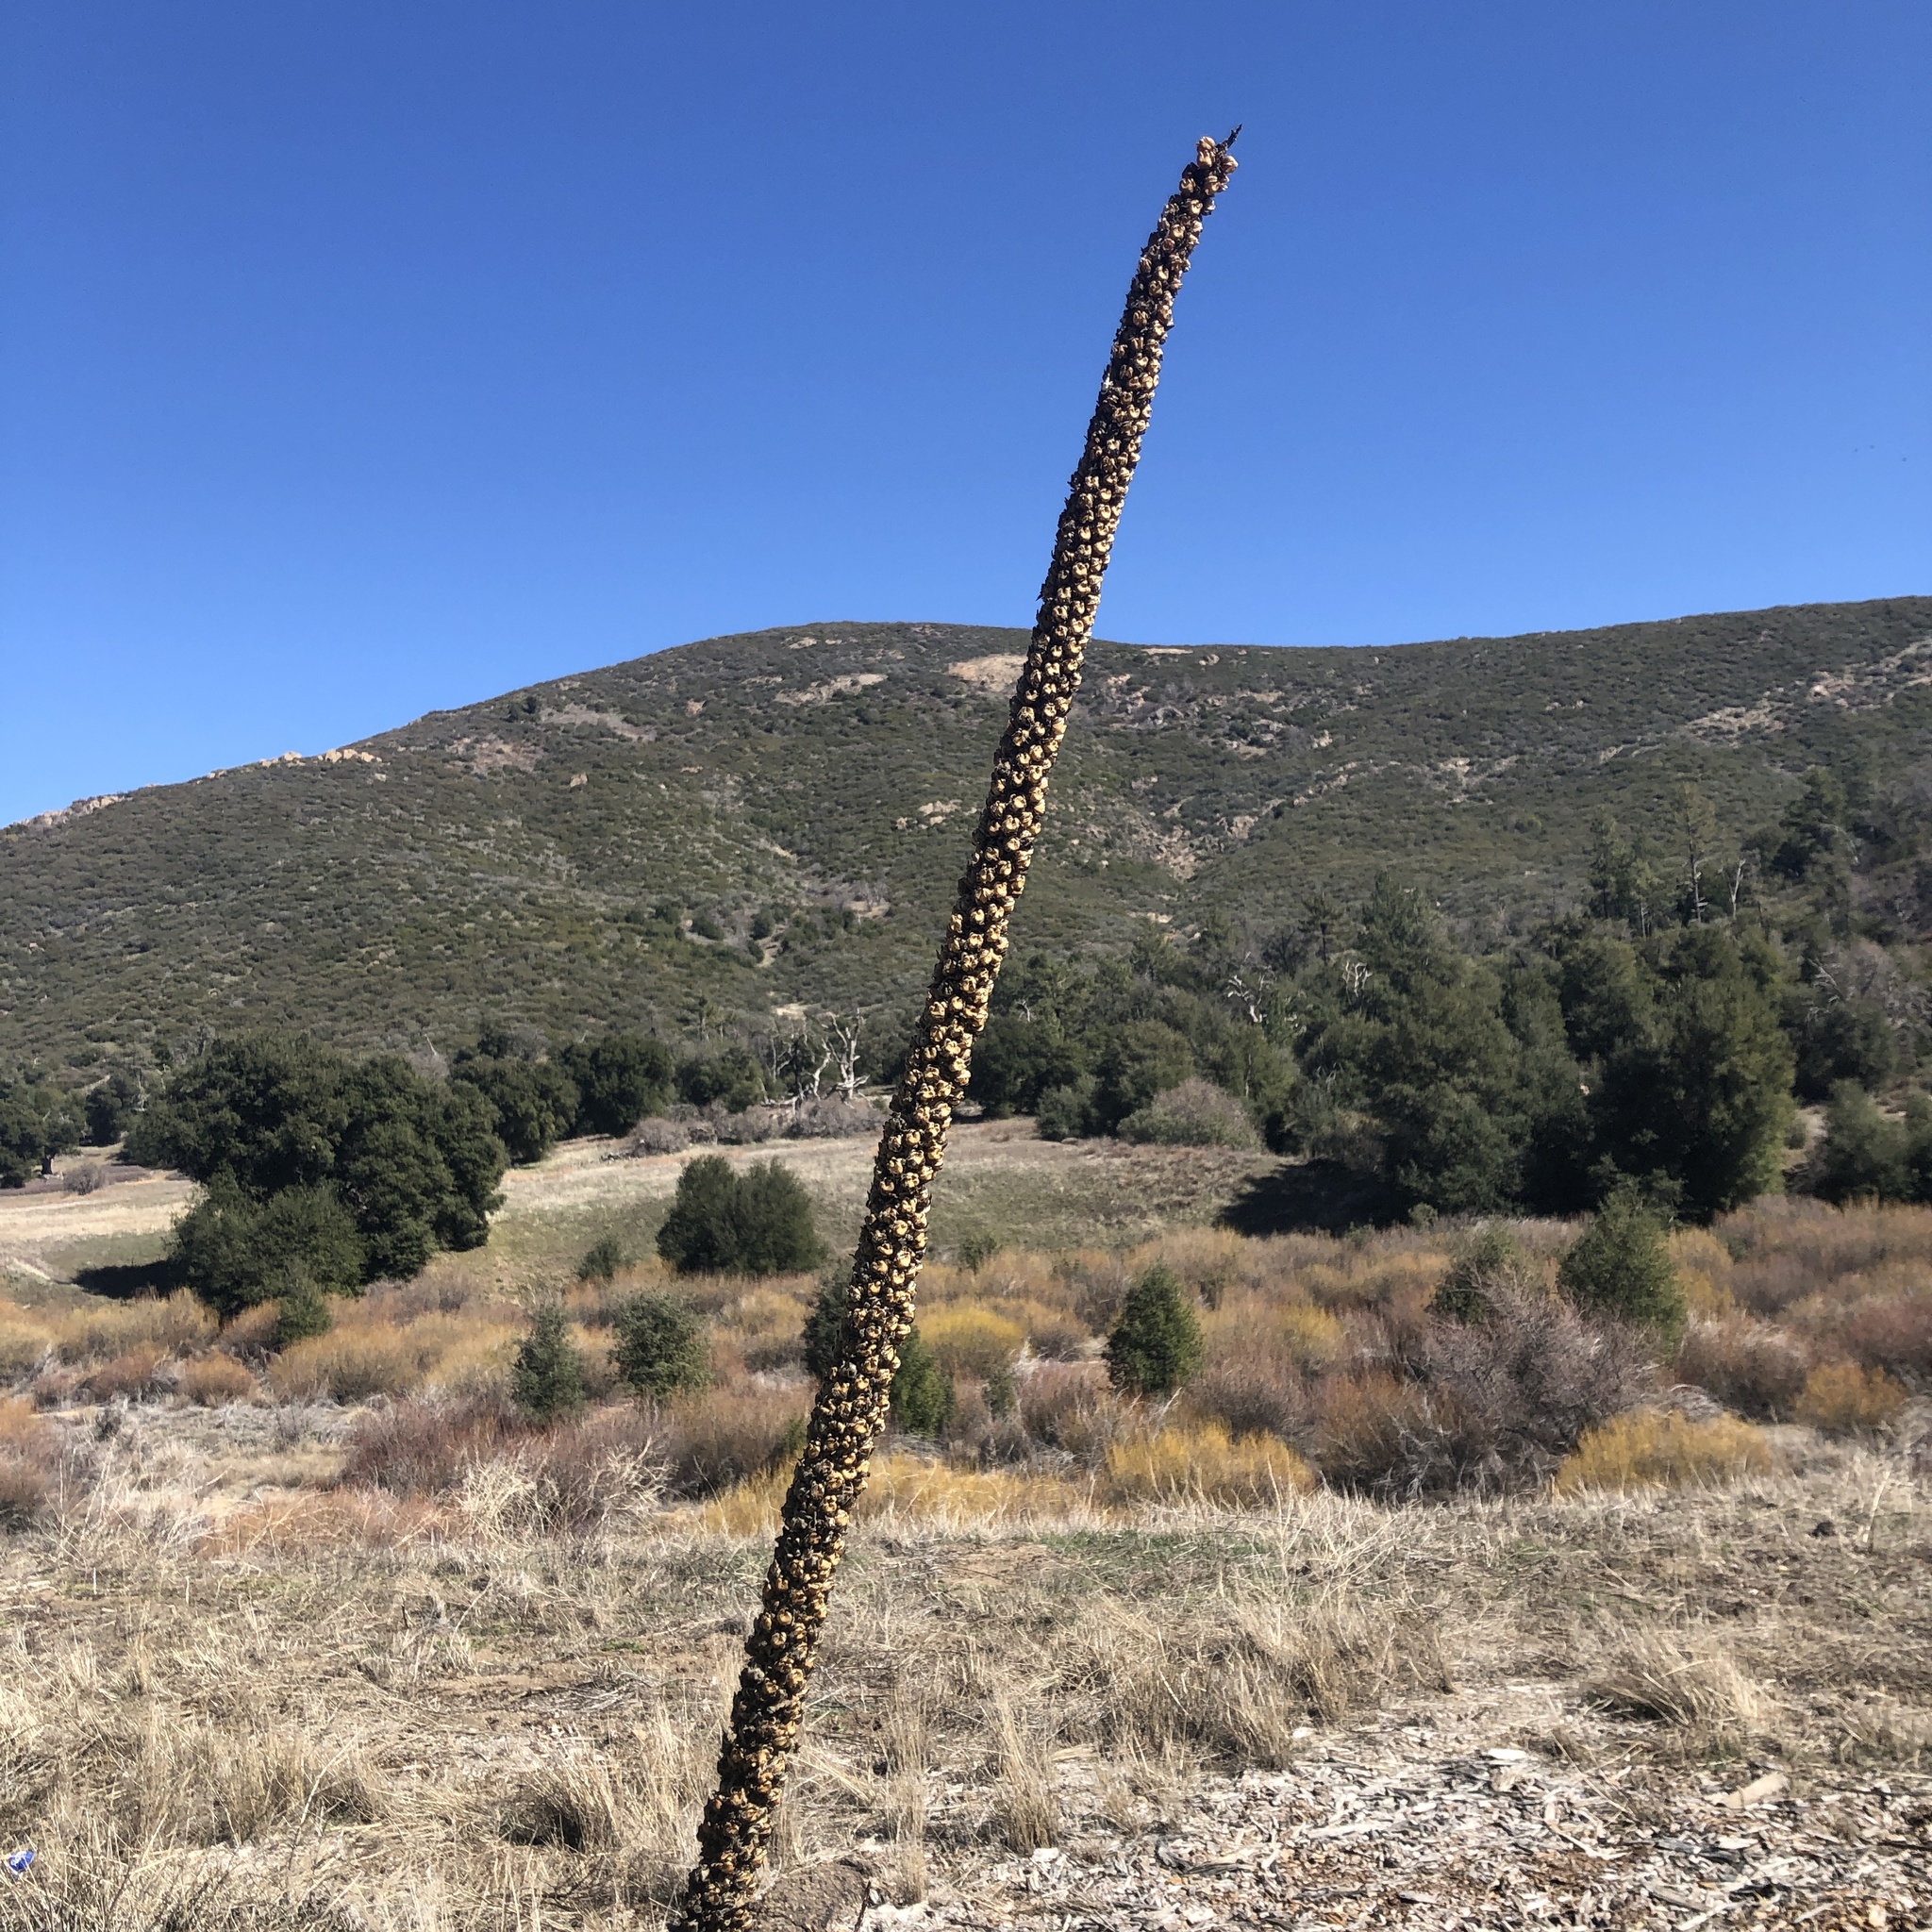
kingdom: Plantae
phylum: Tracheophyta
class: Magnoliopsida
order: Lamiales
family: Scrophulariaceae
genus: Verbascum
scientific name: Verbascum thapsus
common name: Common mullein
